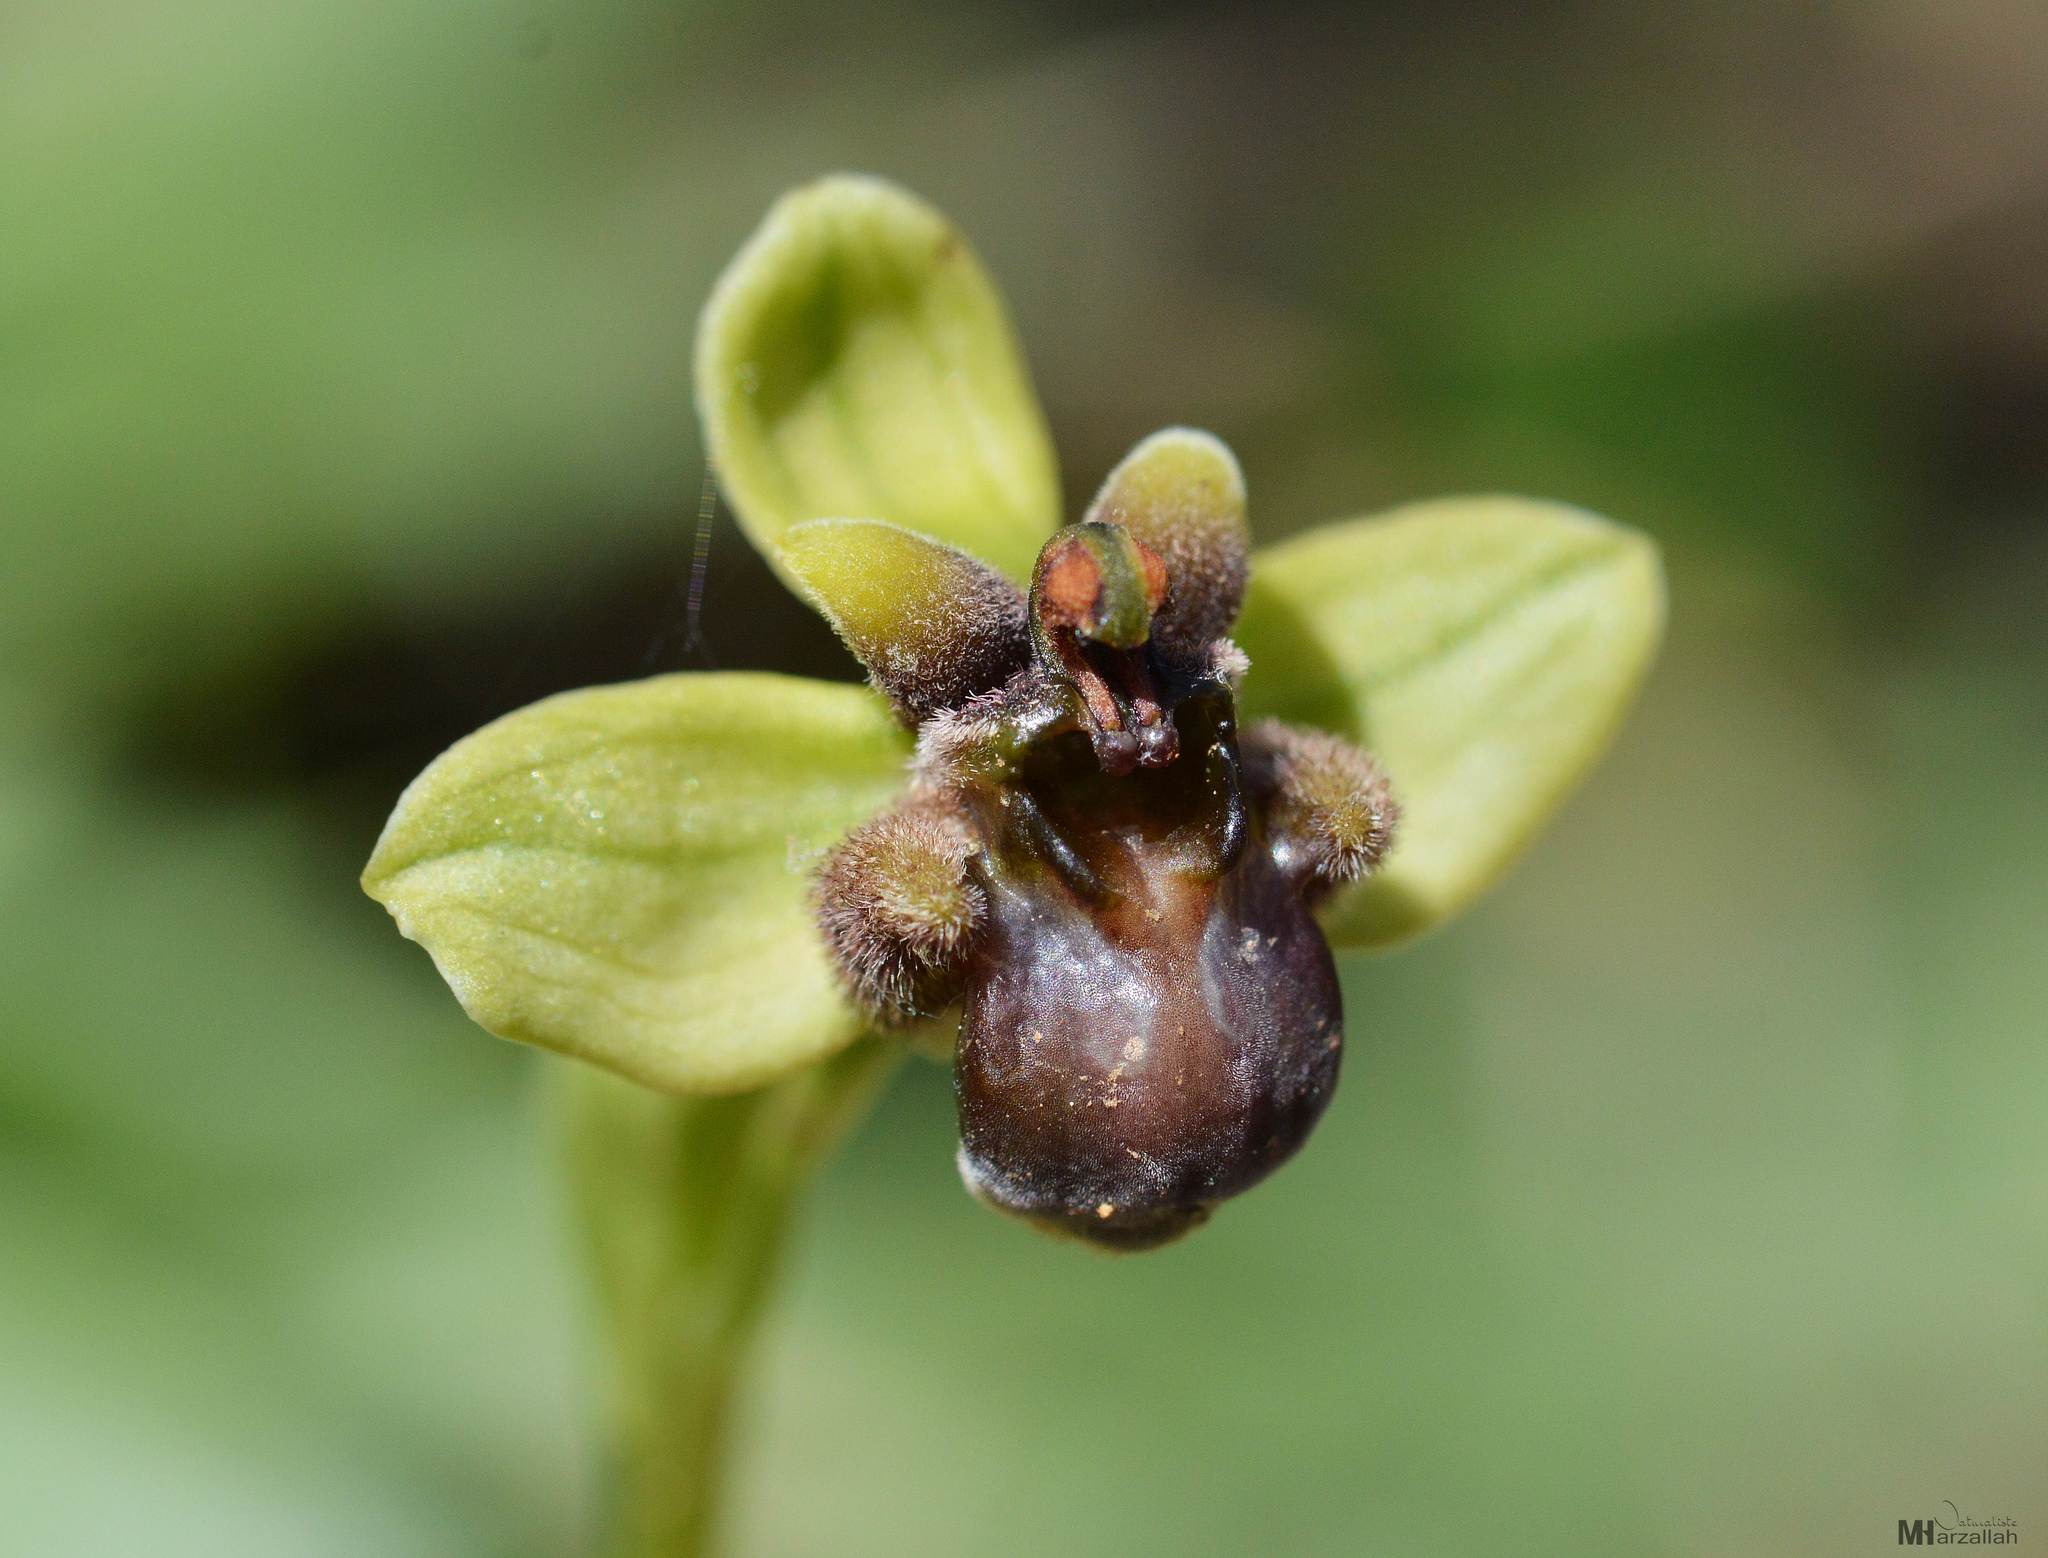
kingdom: Plantae
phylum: Tracheophyta
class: Liliopsida
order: Asparagales
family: Orchidaceae
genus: Ophrys
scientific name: Ophrys bombyliflora
